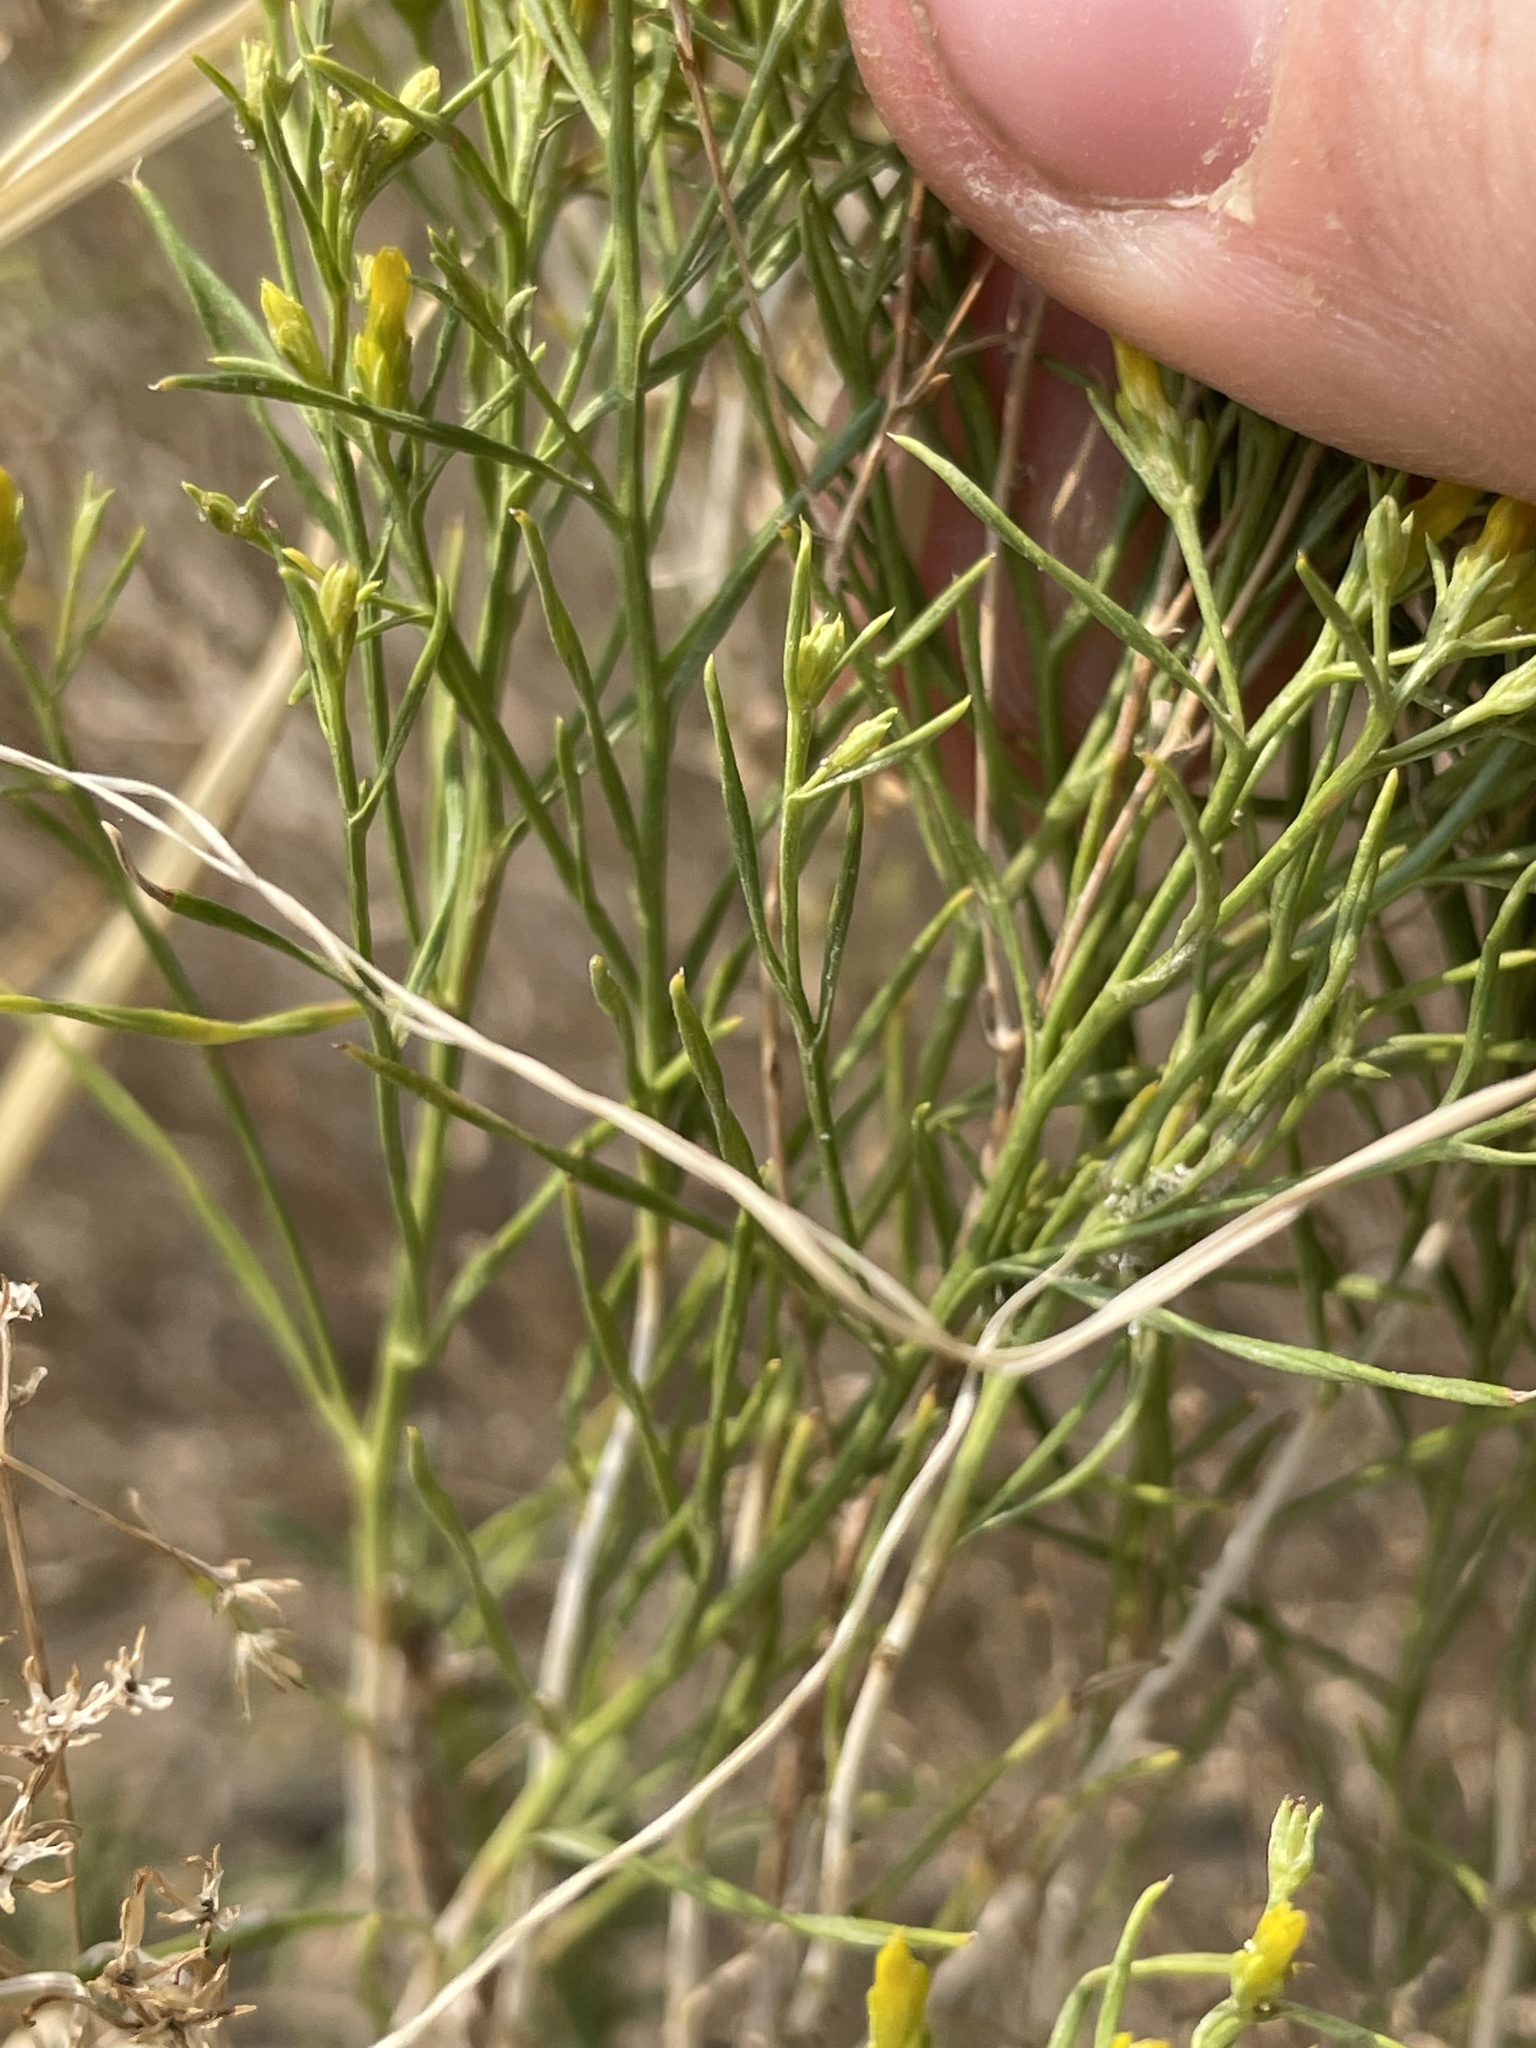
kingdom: Plantae
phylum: Tracheophyta
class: Magnoliopsida
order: Asterales
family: Asteraceae
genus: Chrysothamnus
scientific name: Chrysothamnus greenei
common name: Greene's rabbitbrush
